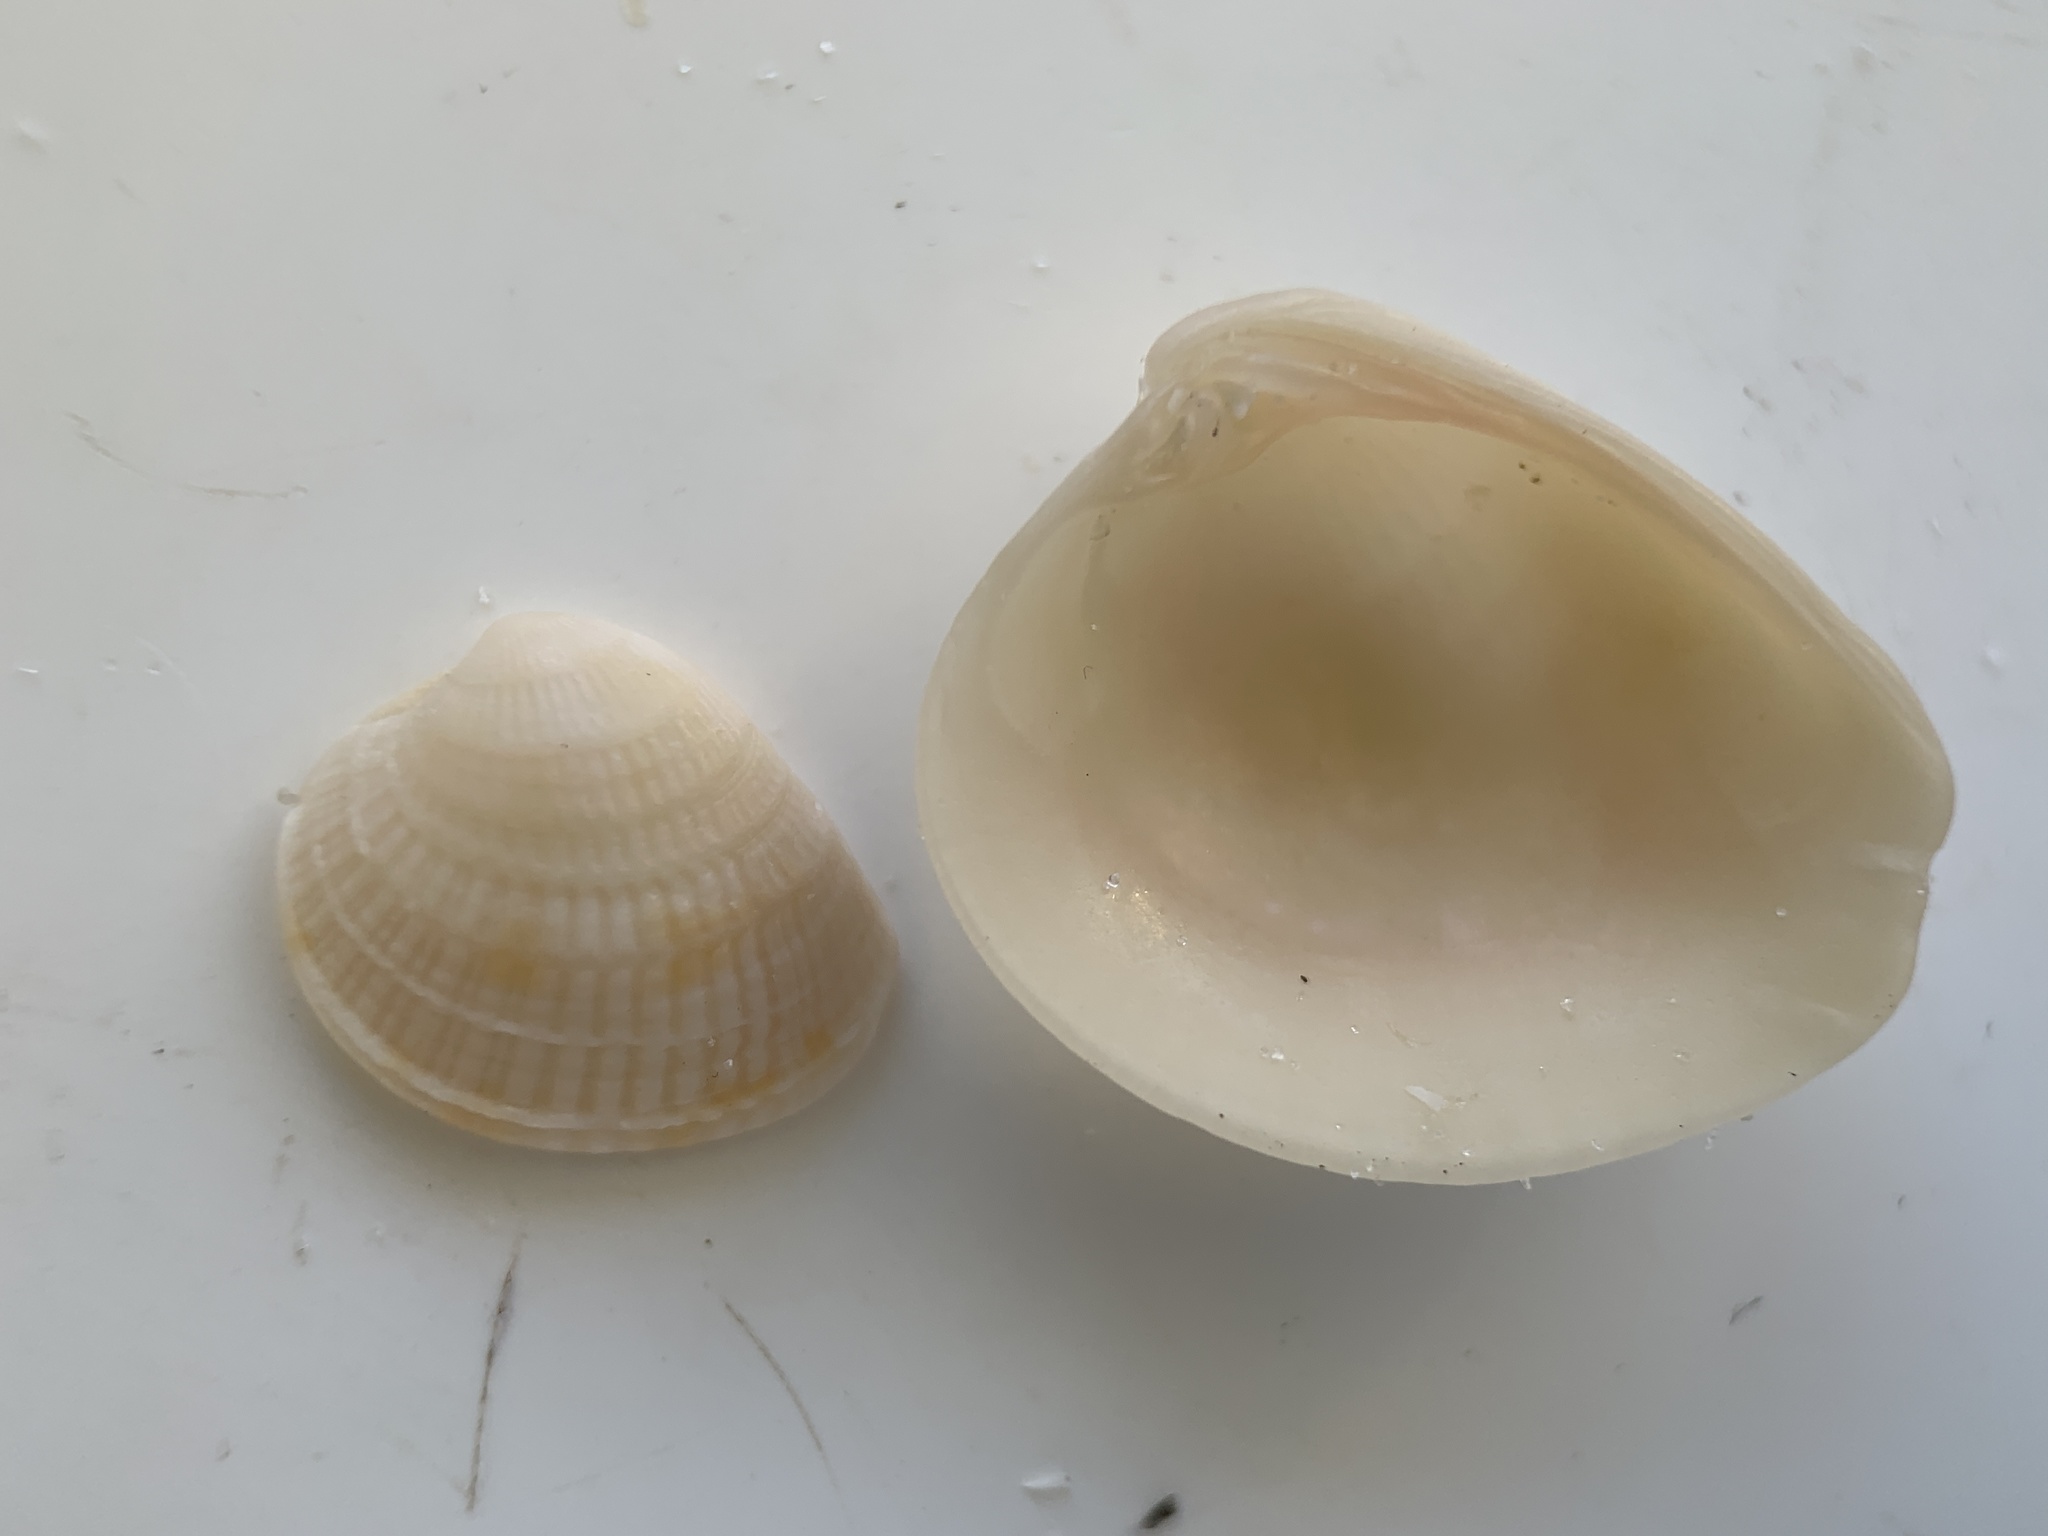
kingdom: Animalia
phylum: Mollusca
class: Bivalvia
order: Venerida
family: Veneridae
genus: Chione
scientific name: Chione elevata
